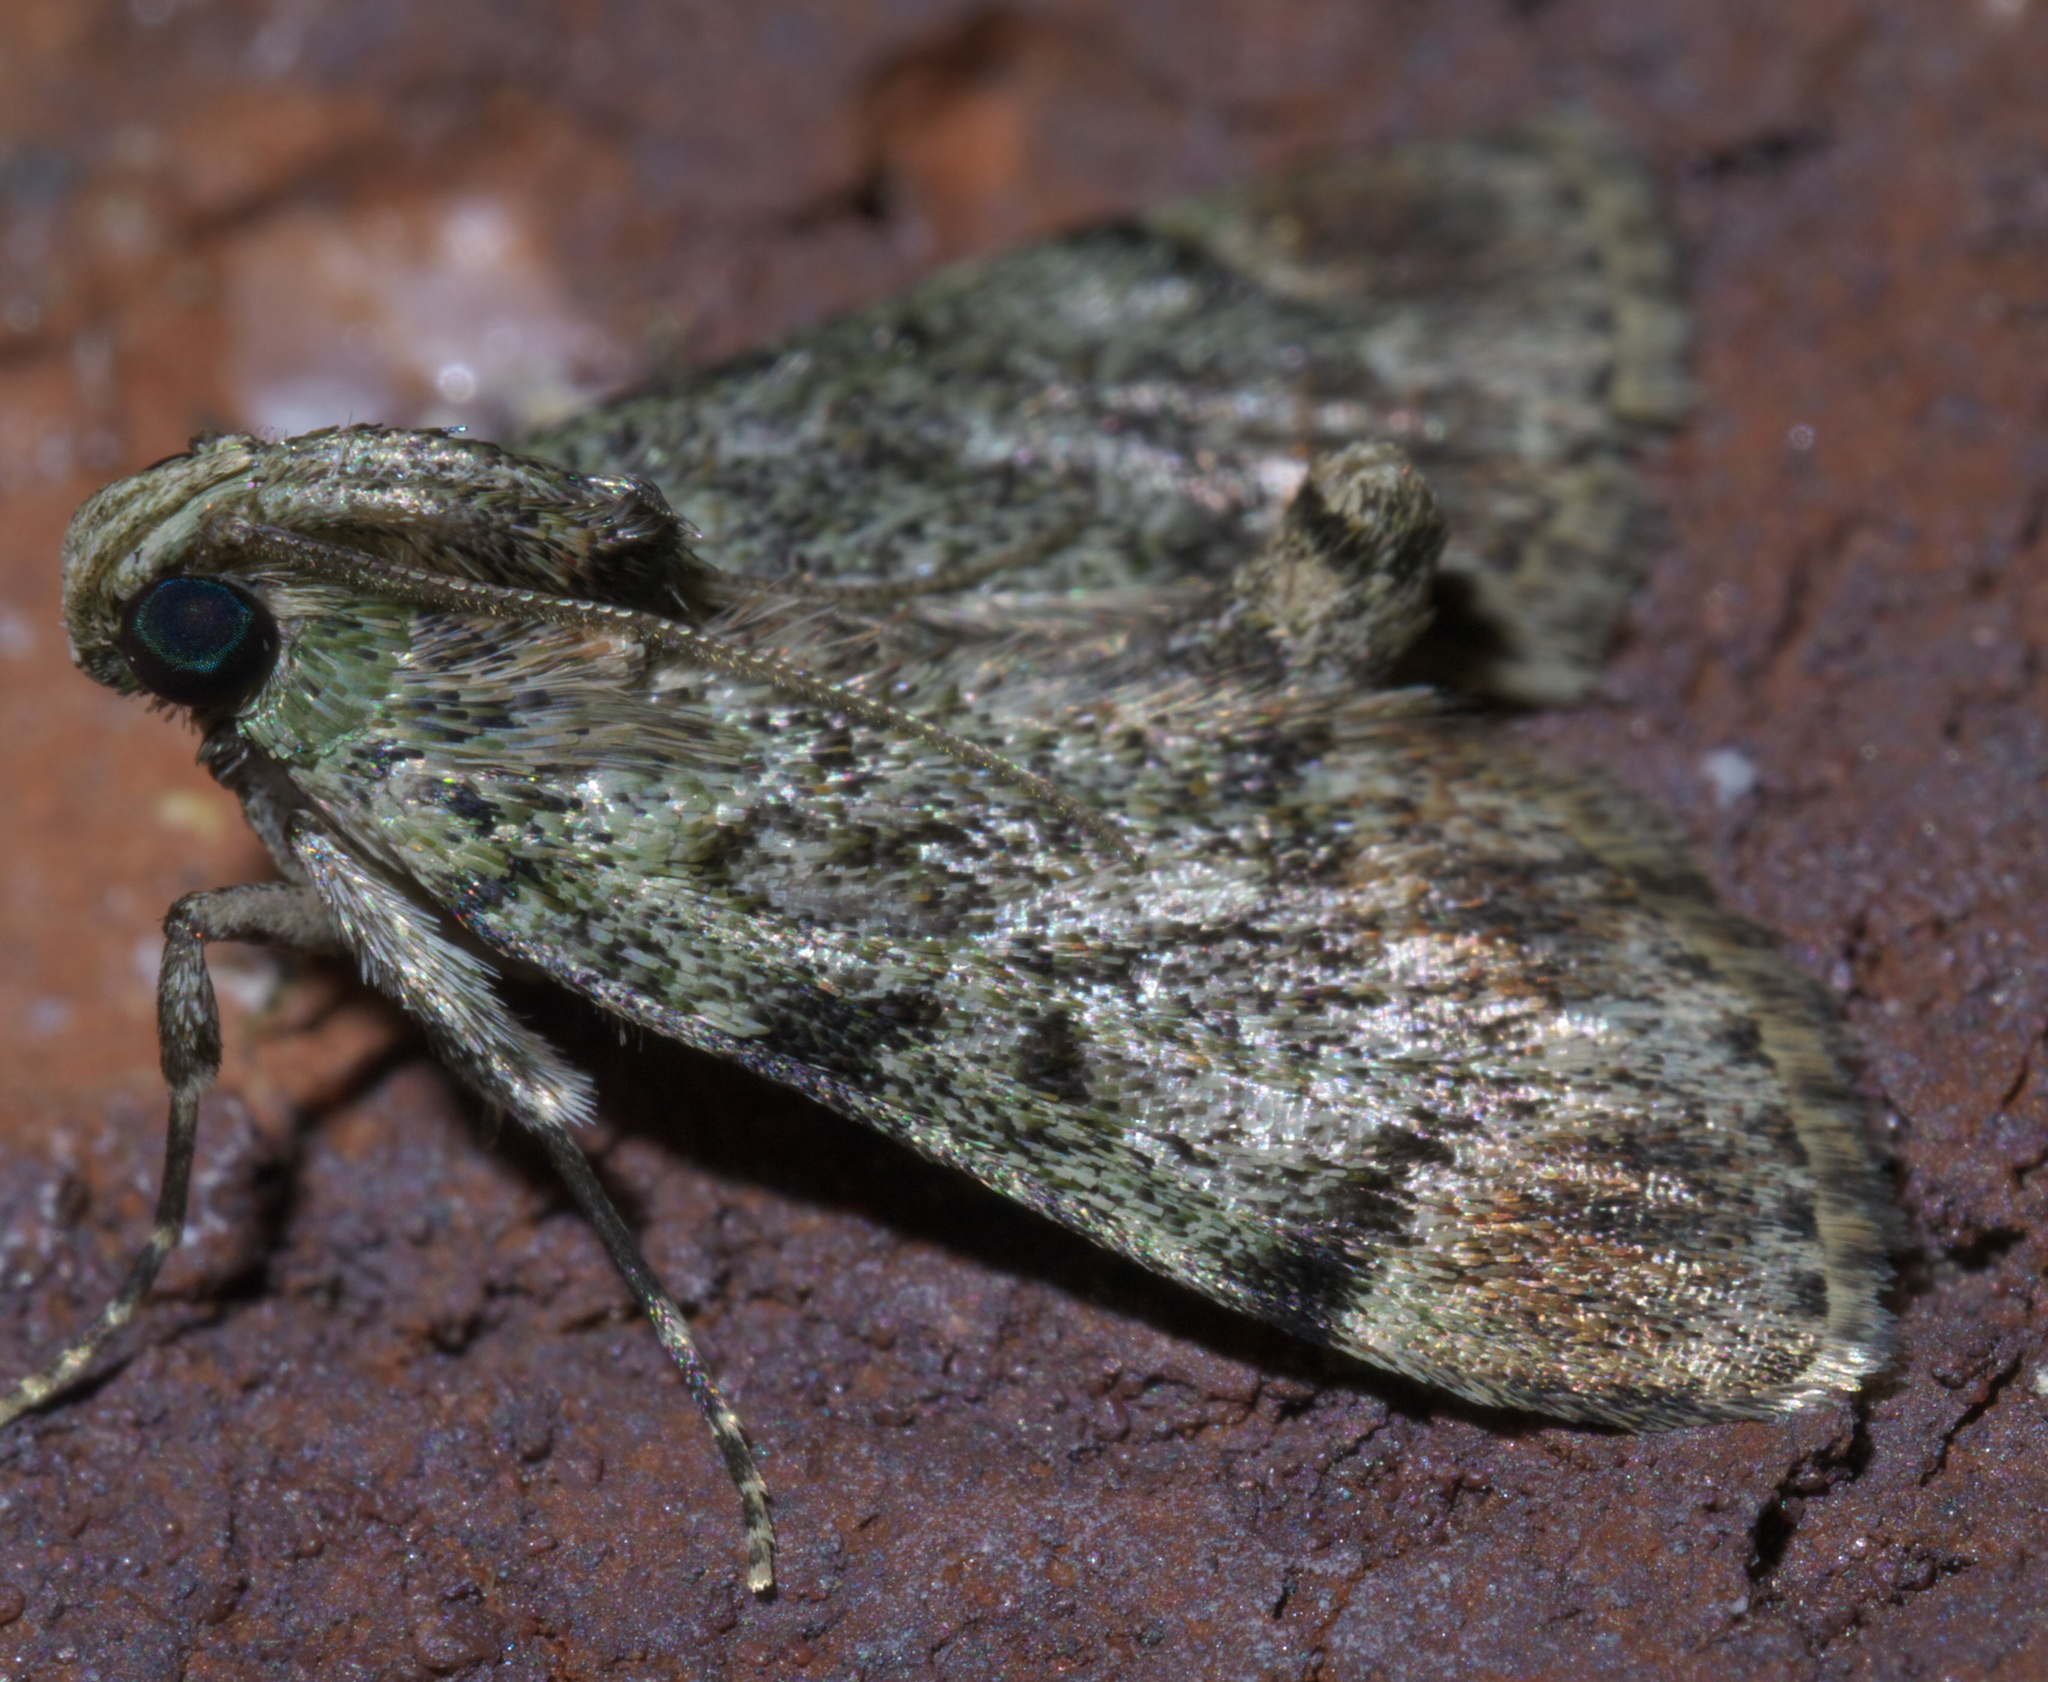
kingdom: Animalia
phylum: Arthropoda
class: Insecta
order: Lepidoptera
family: Pyralidae
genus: Epipaschia
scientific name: Epipaschia superatalis
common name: Dimorphic macalla moth
